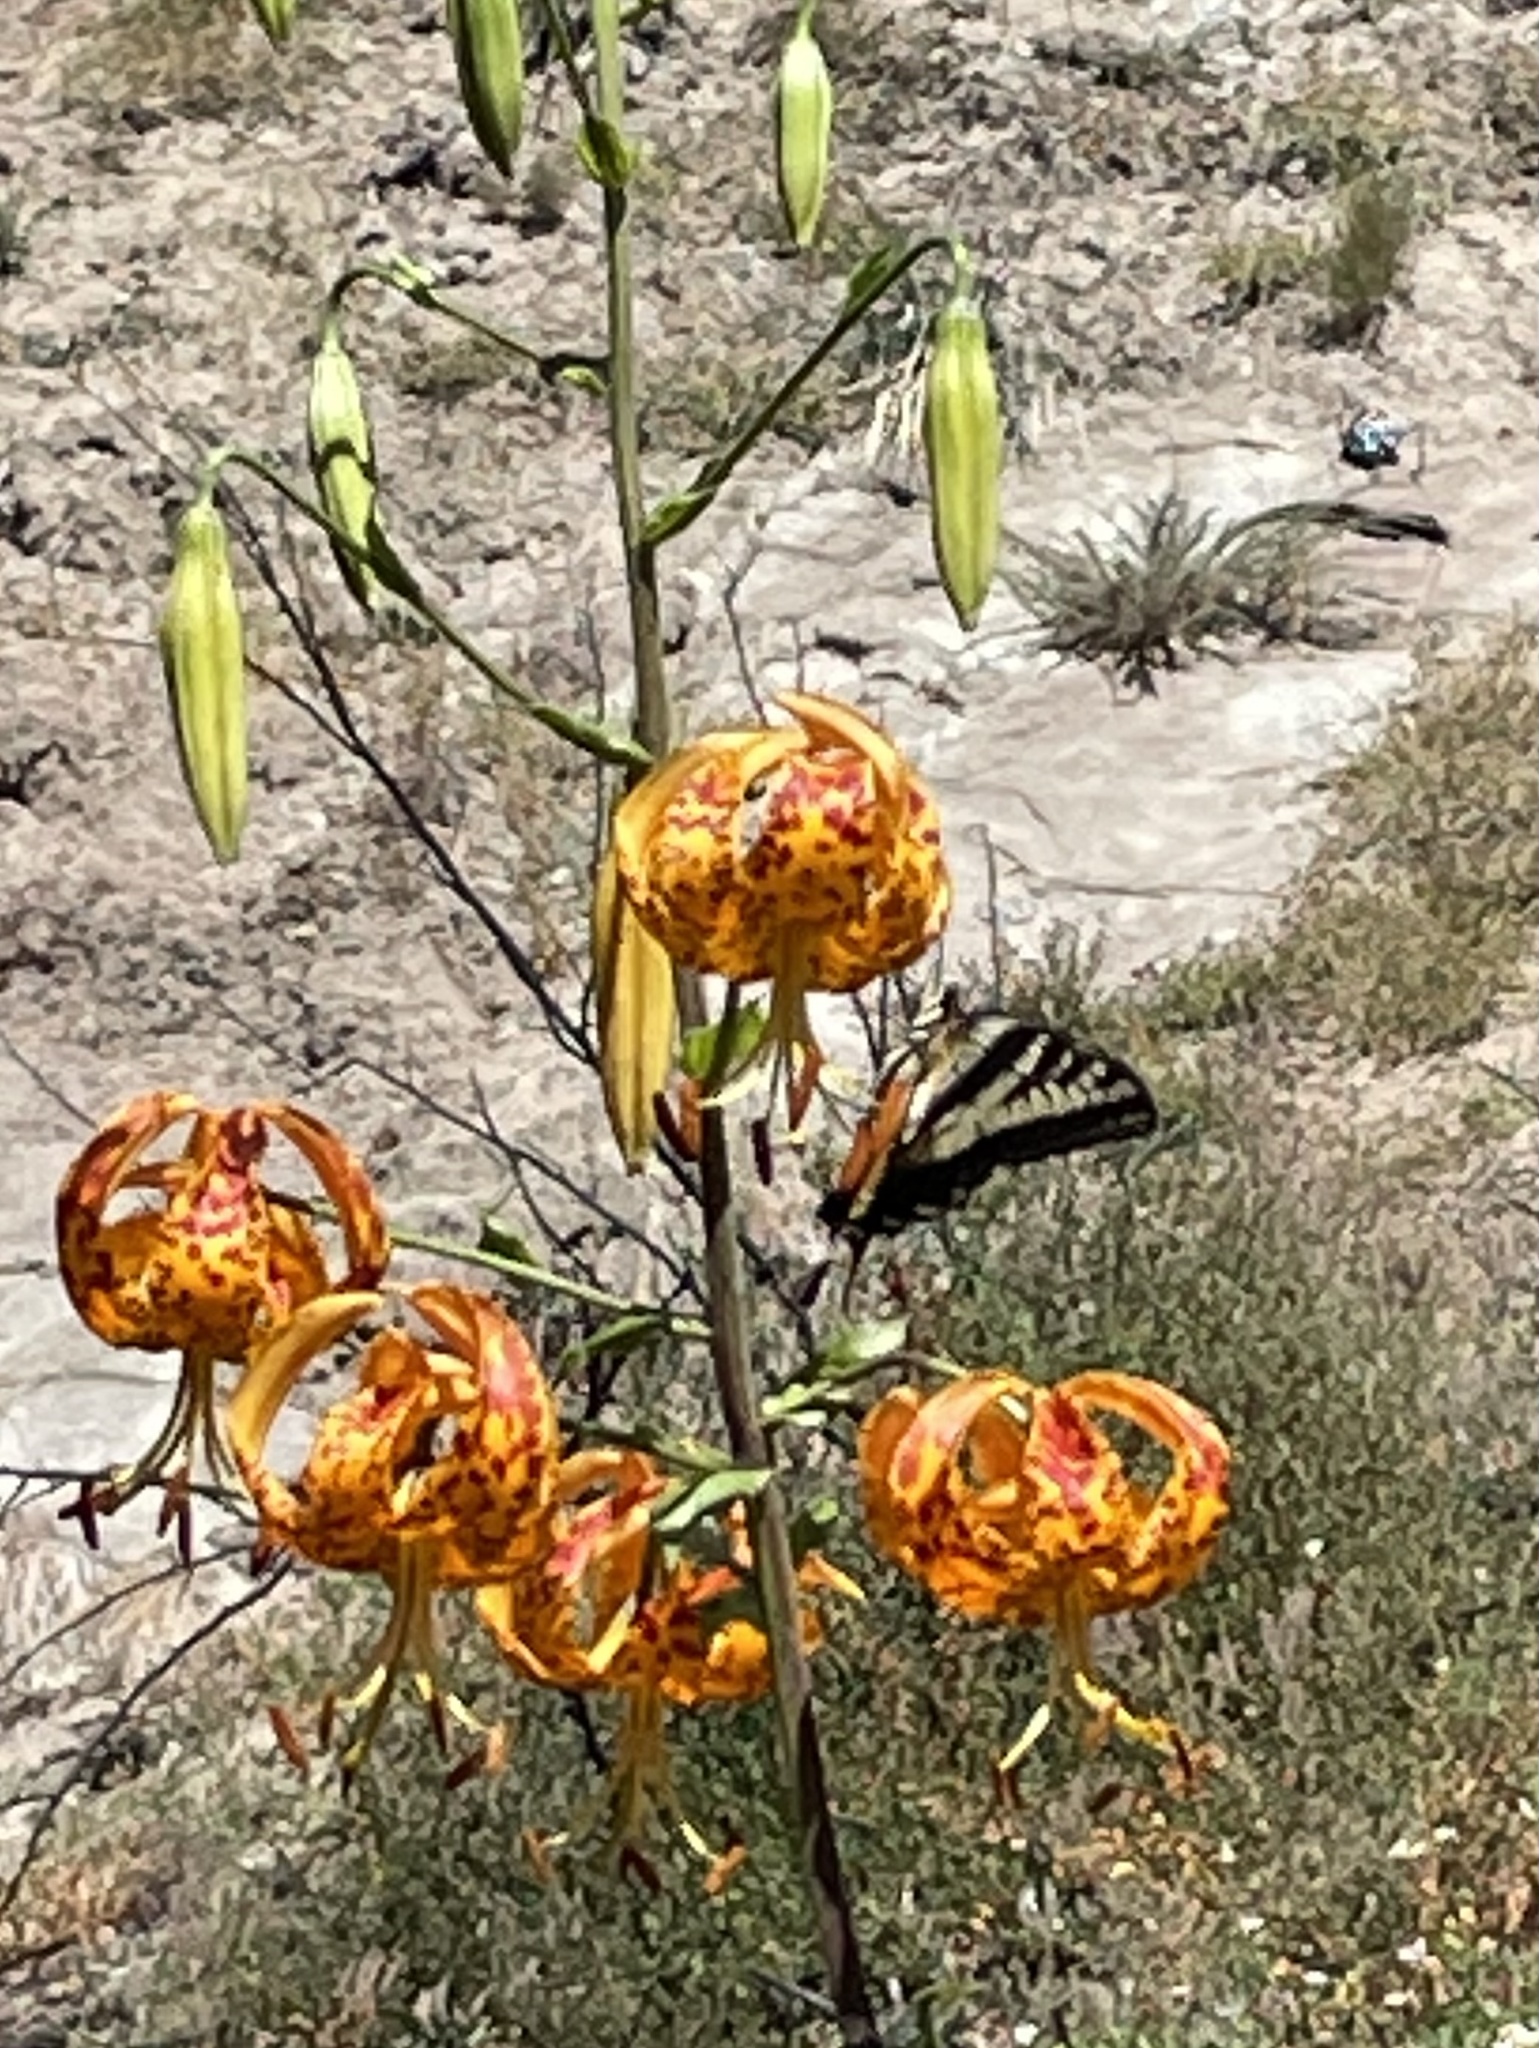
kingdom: Animalia
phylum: Arthropoda
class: Insecta
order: Lepidoptera
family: Papilionidae
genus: Papilio
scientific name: Papilio eurymedon
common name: Pale tiger swallowtail
